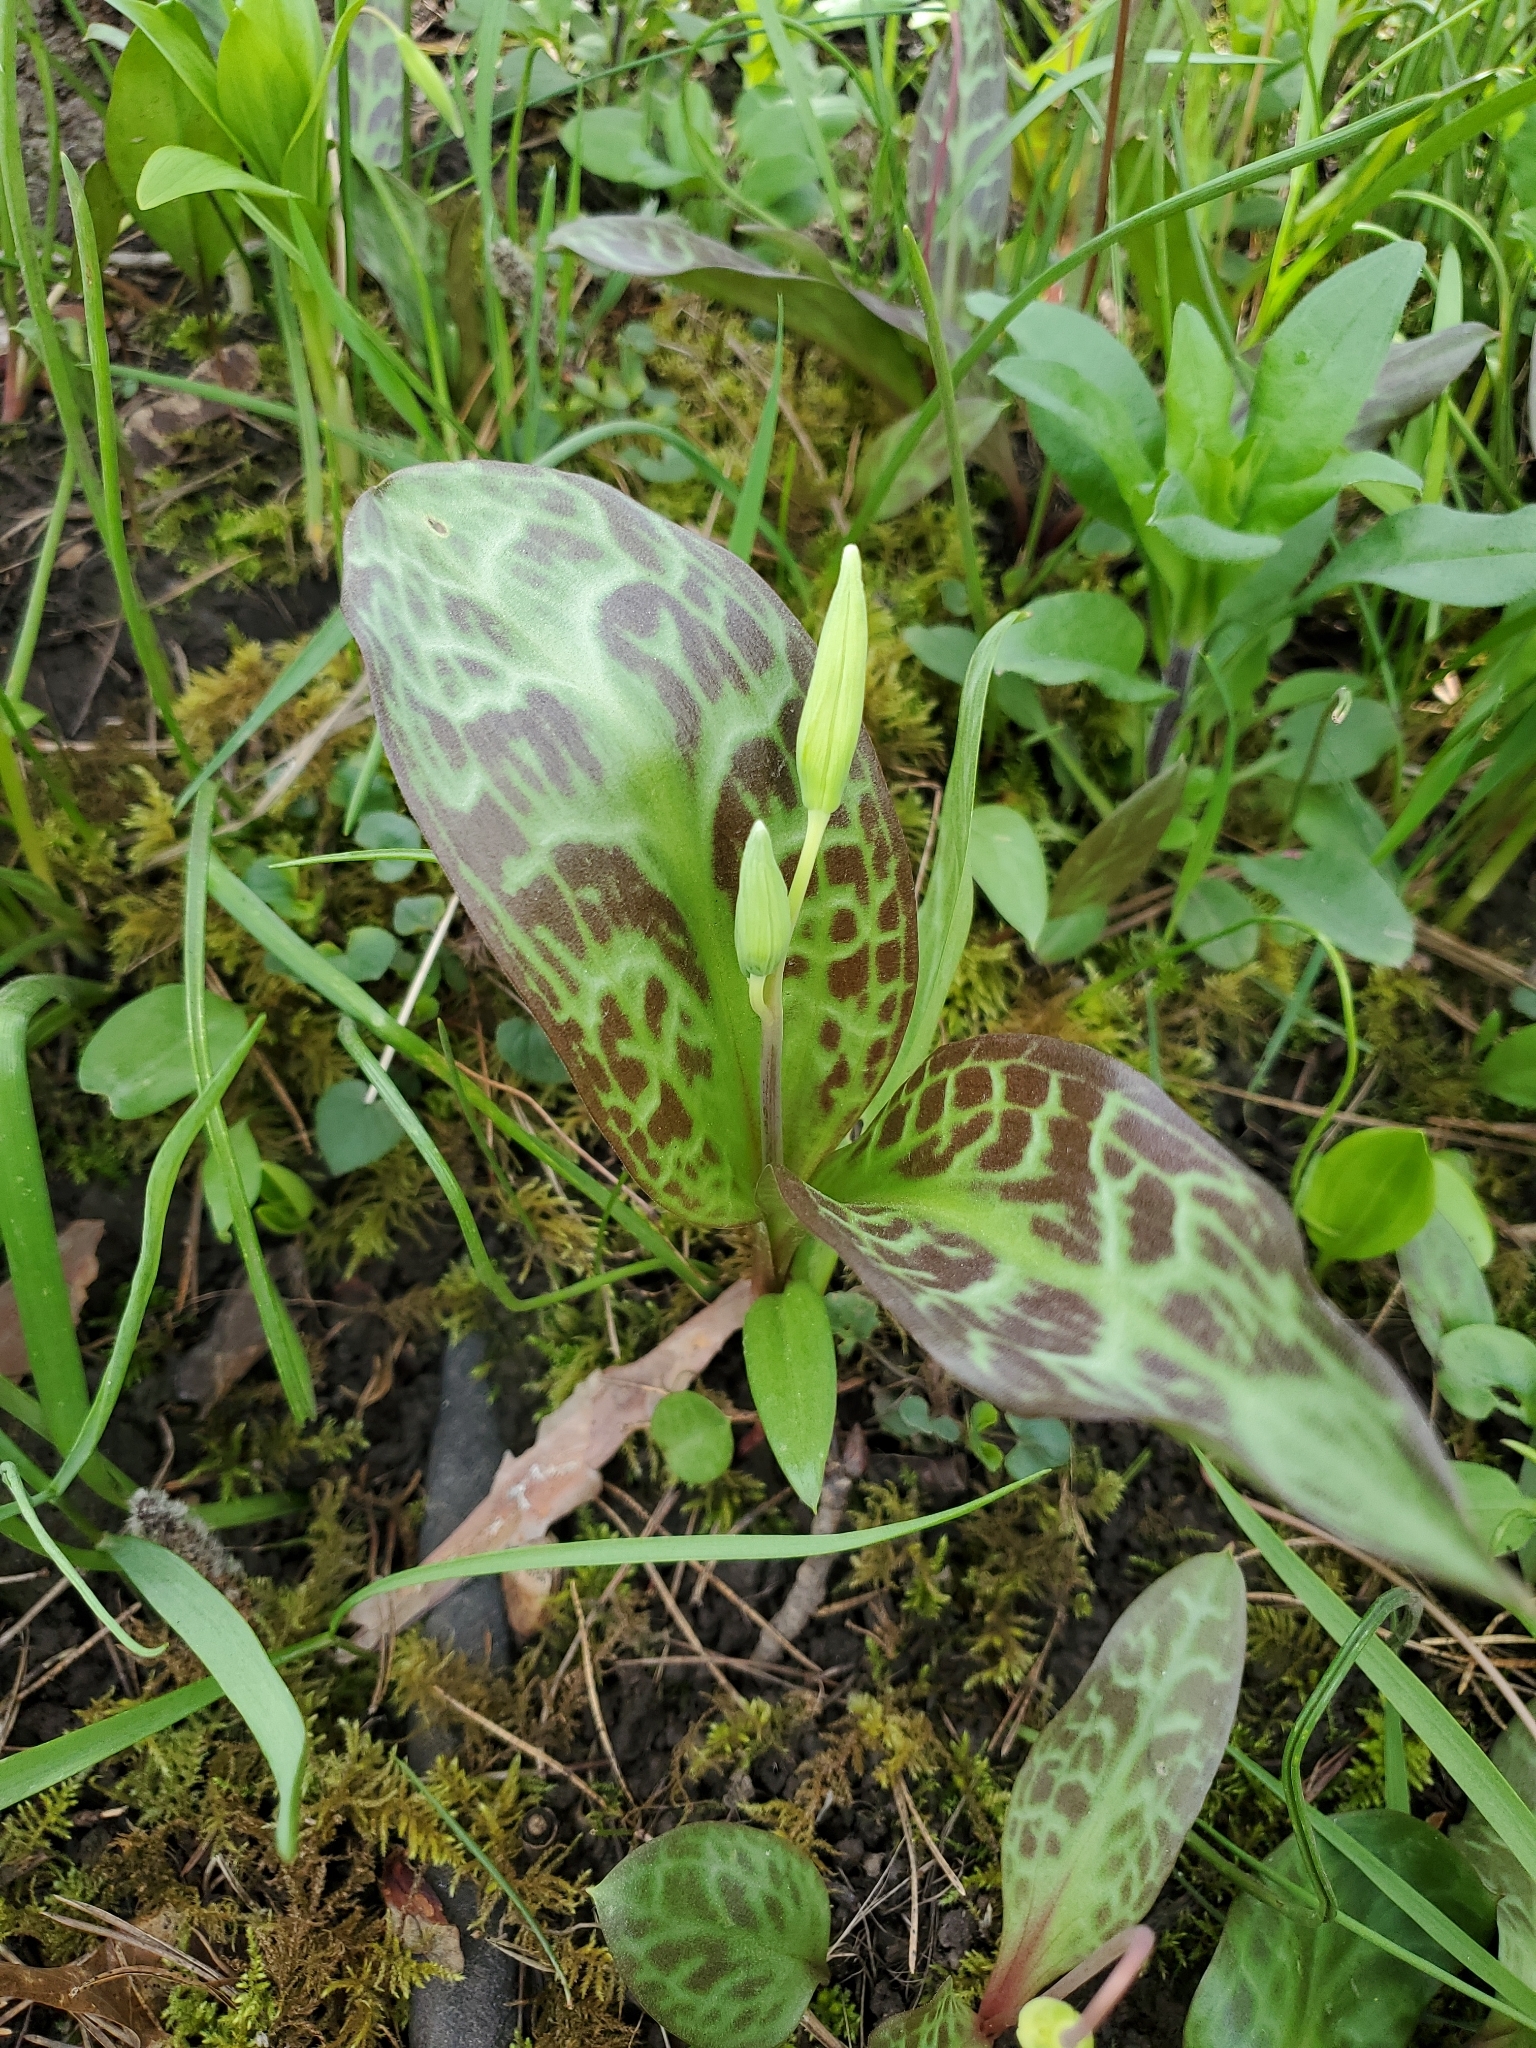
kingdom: Plantae
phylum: Tracheophyta
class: Liliopsida
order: Liliales
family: Liliaceae
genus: Erythronium
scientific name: Erythronium oregonum
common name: Giant adder's-tongue
